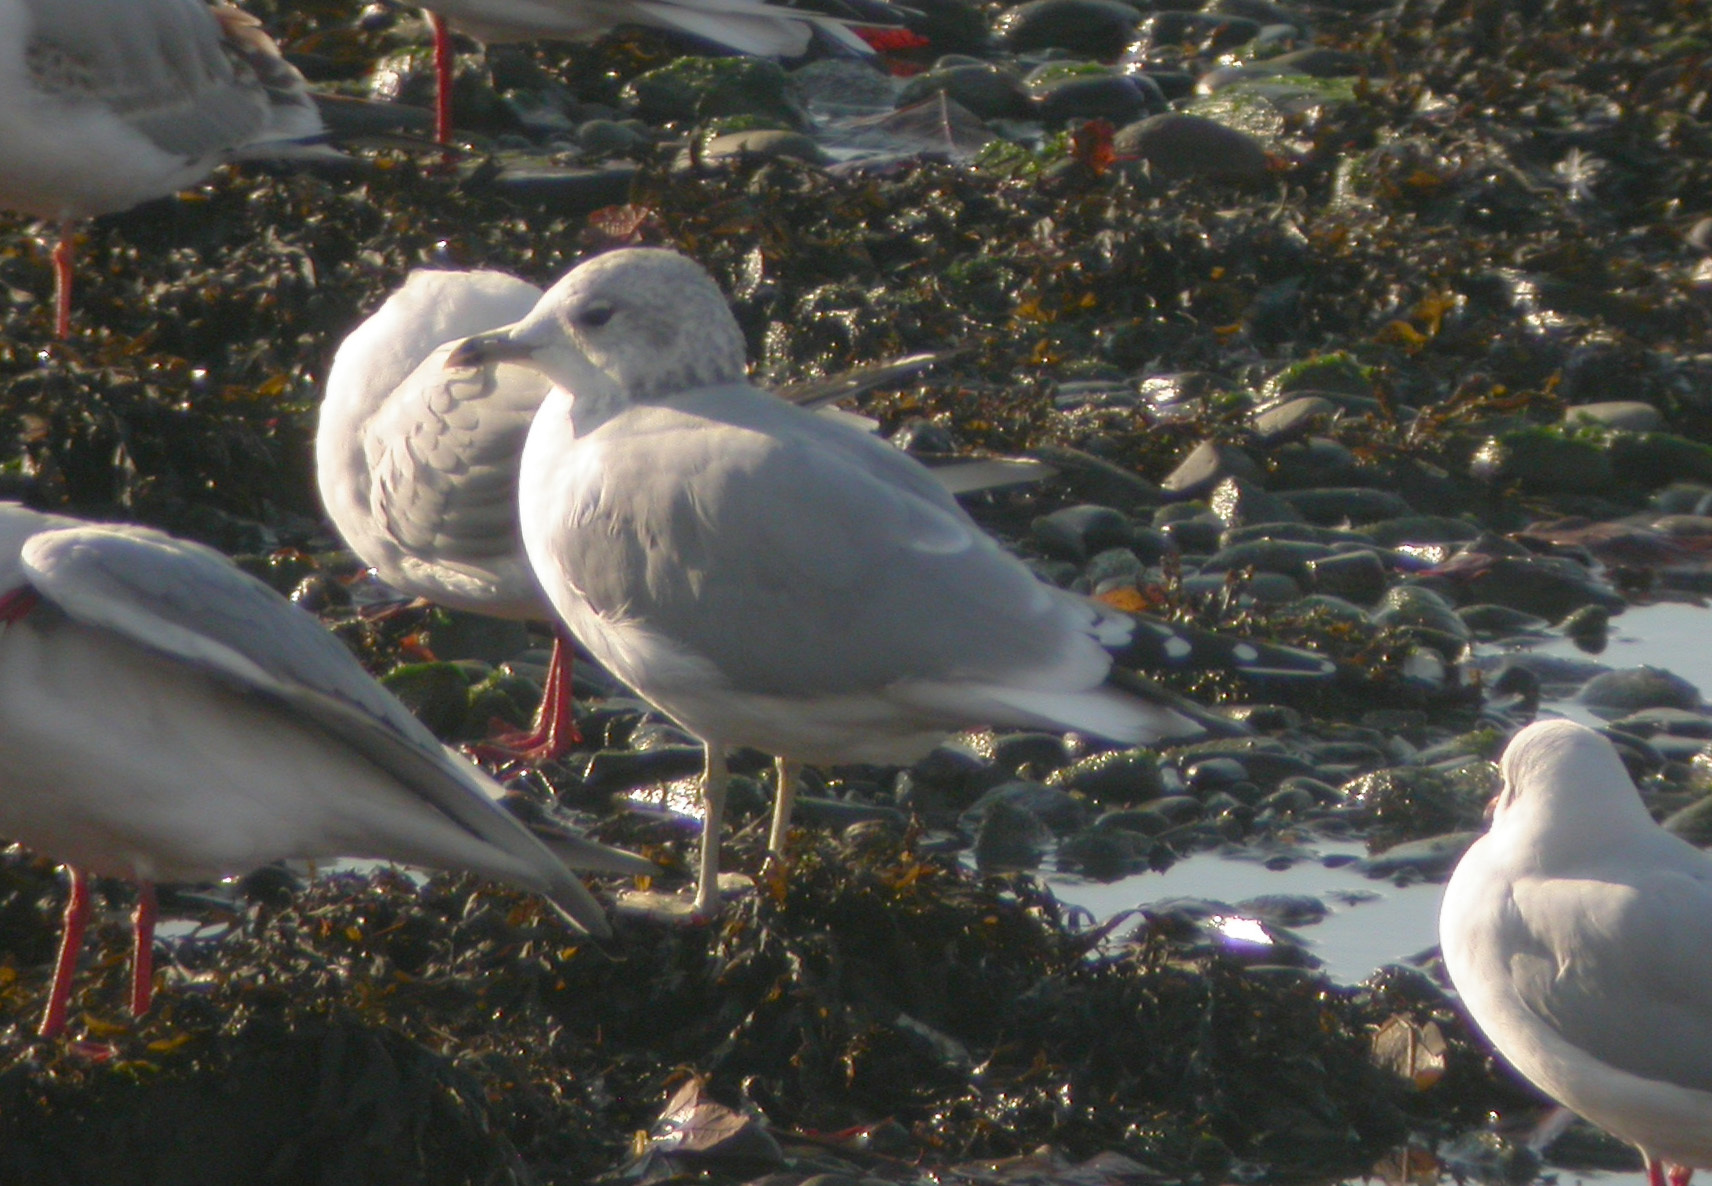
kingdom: Animalia
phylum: Chordata
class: Aves
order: Charadriiformes
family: Laridae
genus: Larus
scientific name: Larus canus
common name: Mew gull
